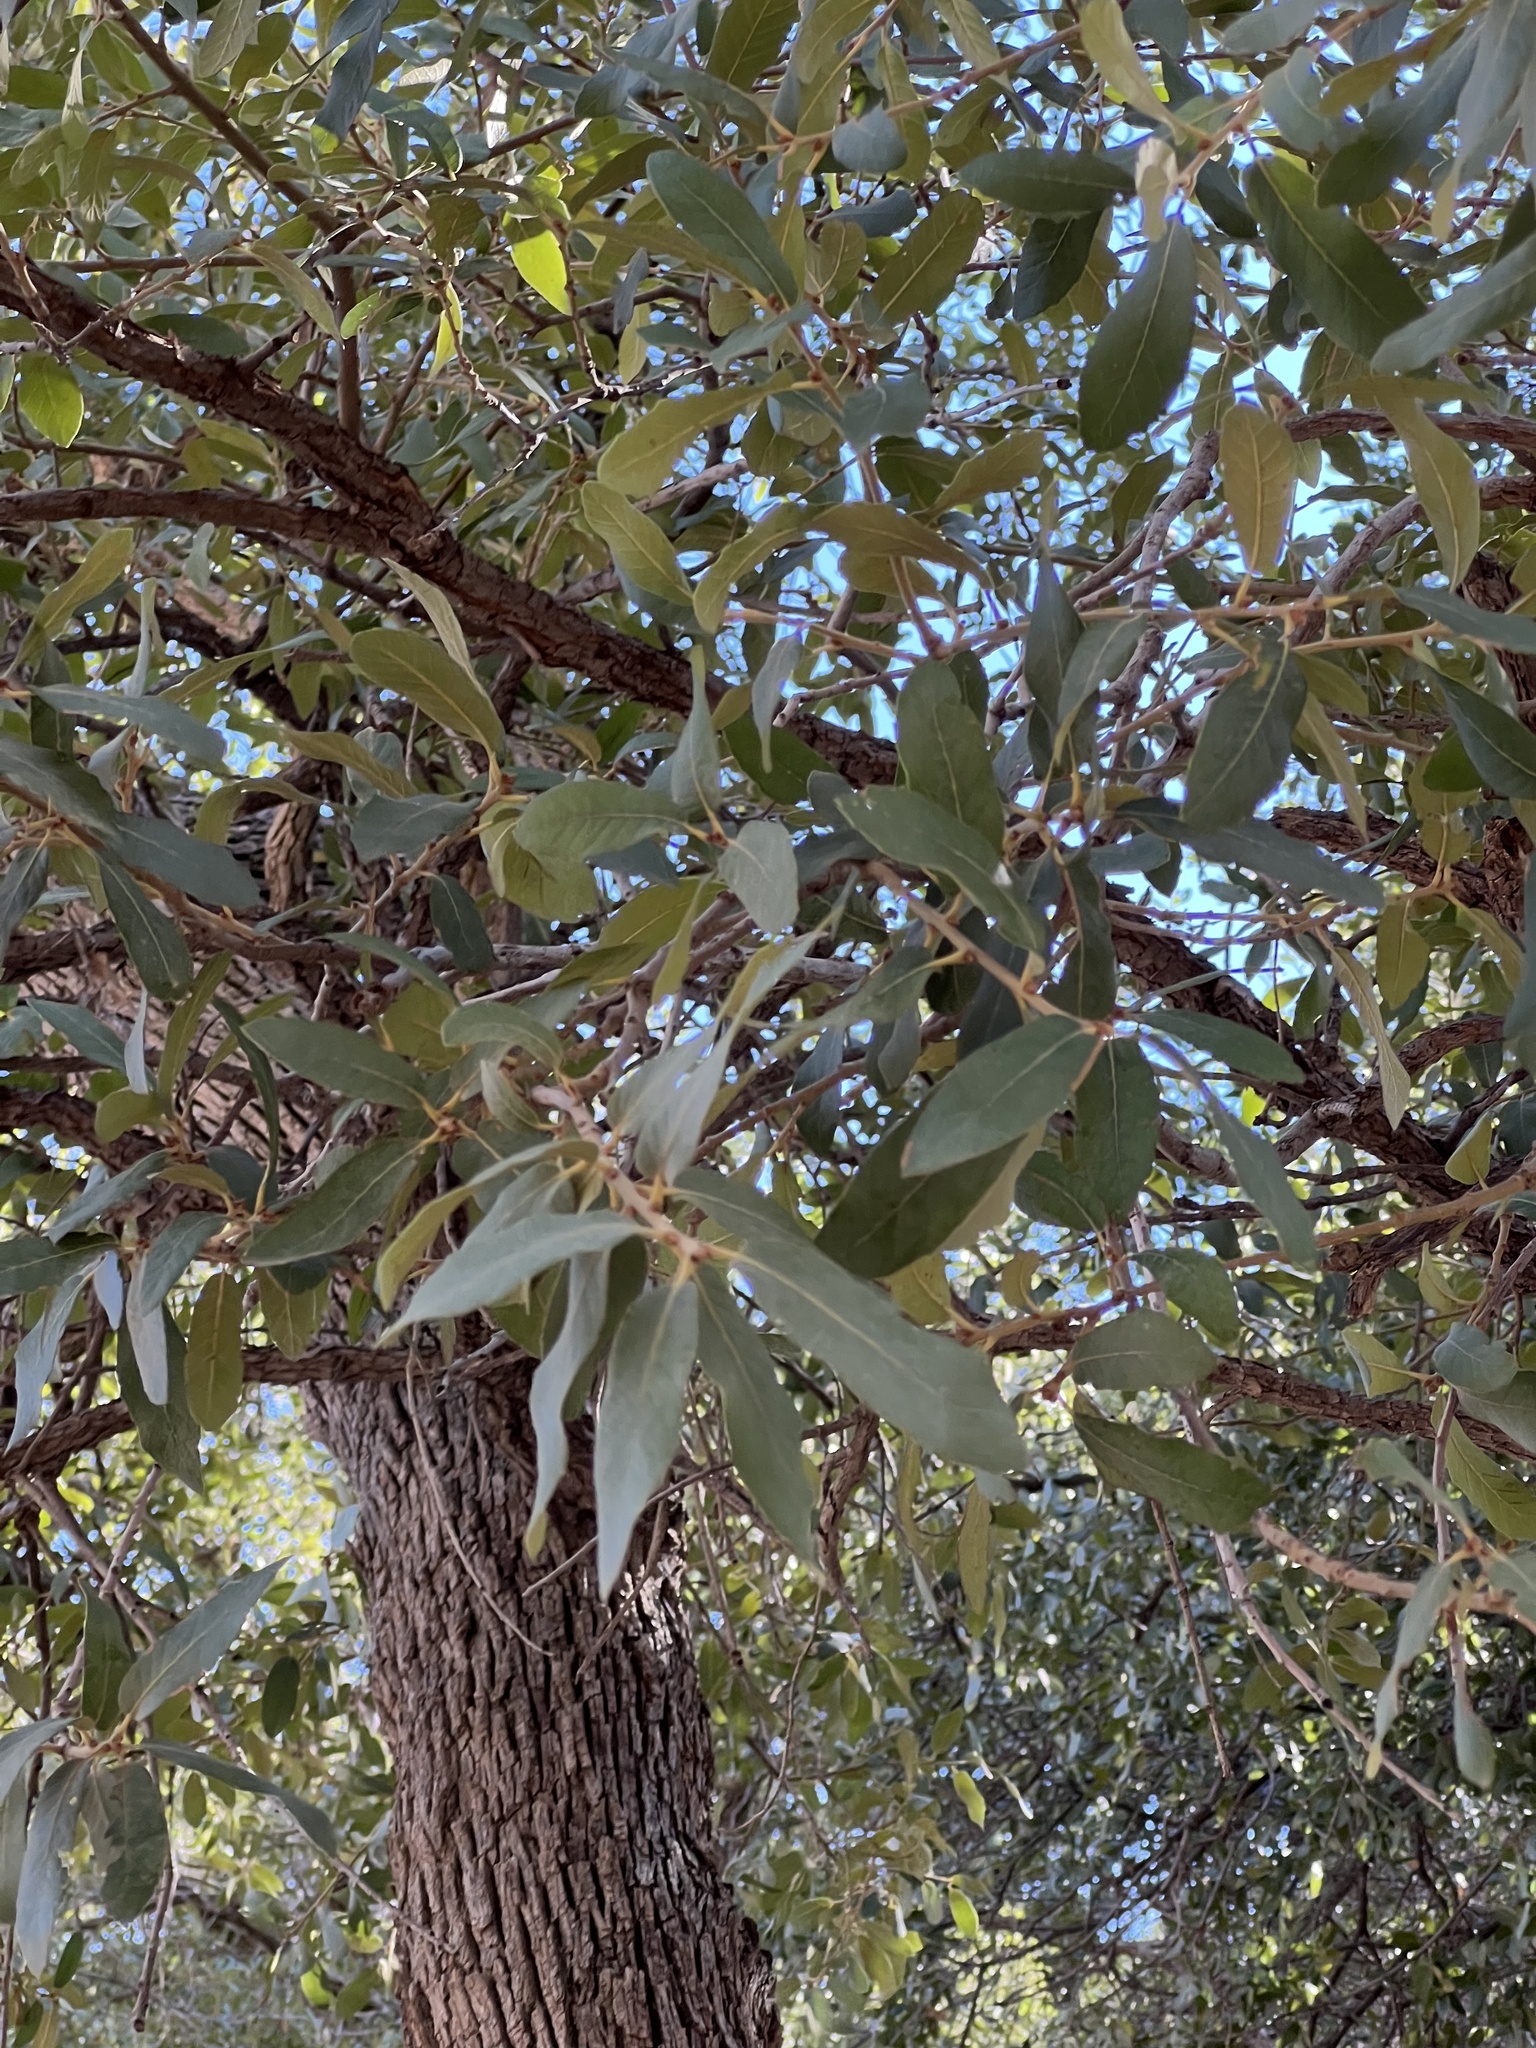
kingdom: Plantae
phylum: Tracheophyta
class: Magnoliopsida
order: Fagales
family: Fagaceae
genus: Quercus
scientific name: Quercus hypoleucoides
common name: Silverleaf oak
